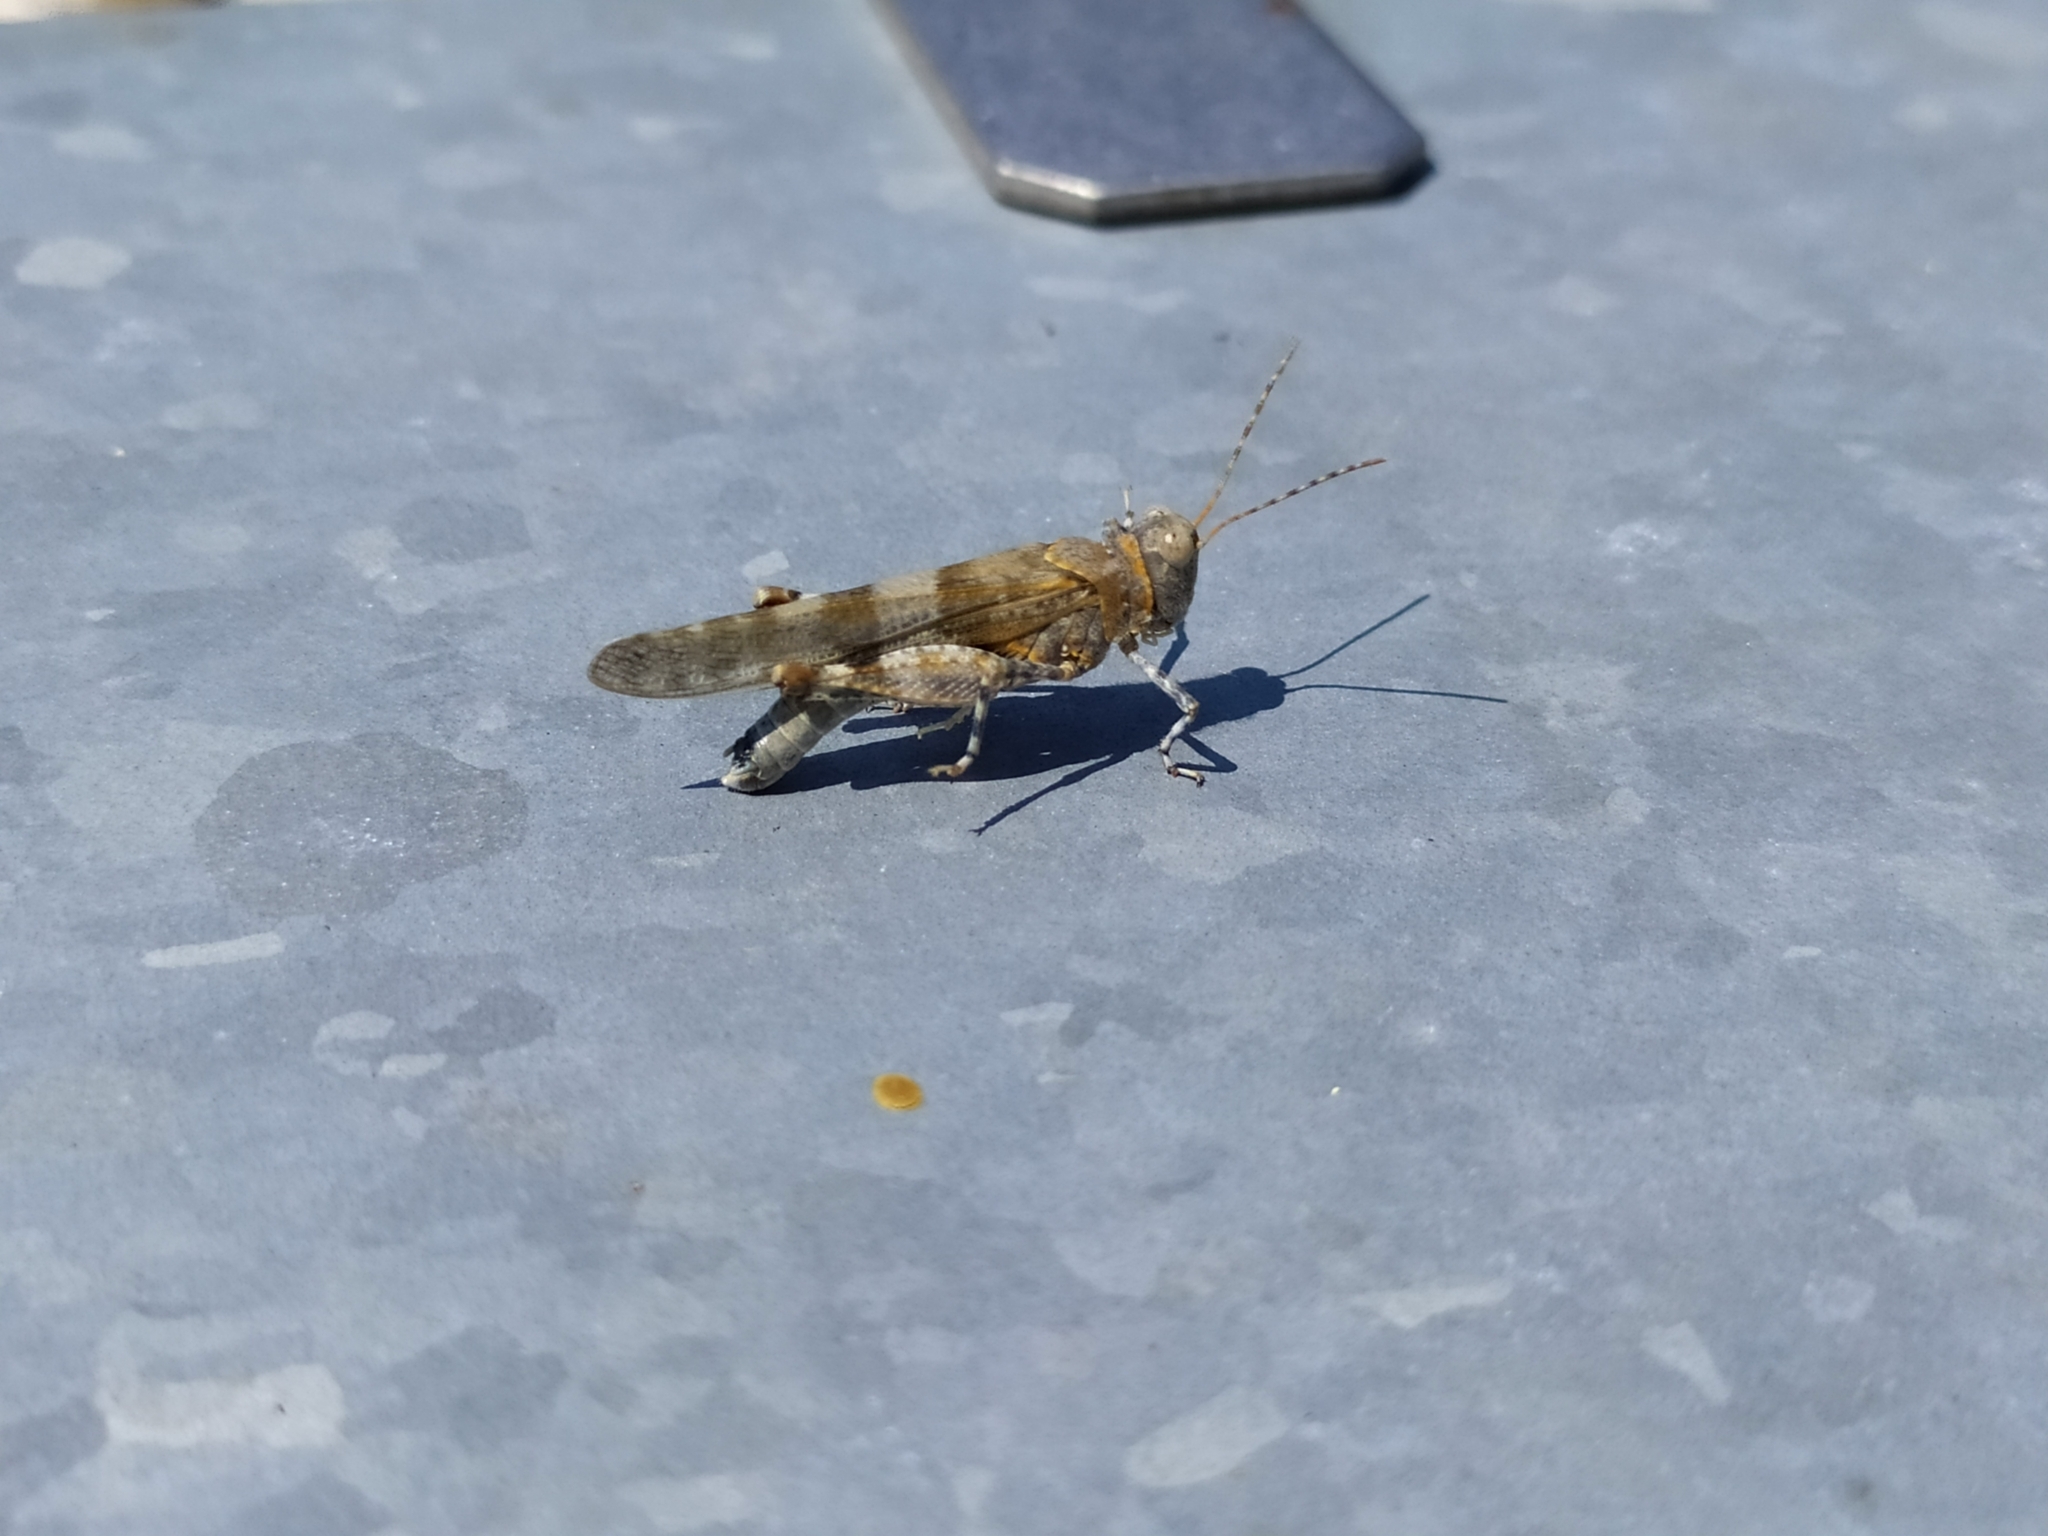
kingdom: Animalia
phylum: Arthropoda
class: Insecta
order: Orthoptera
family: Acrididae
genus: Sphingonotus
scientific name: Sphingonotus caerulans
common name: Blue-winged locust
